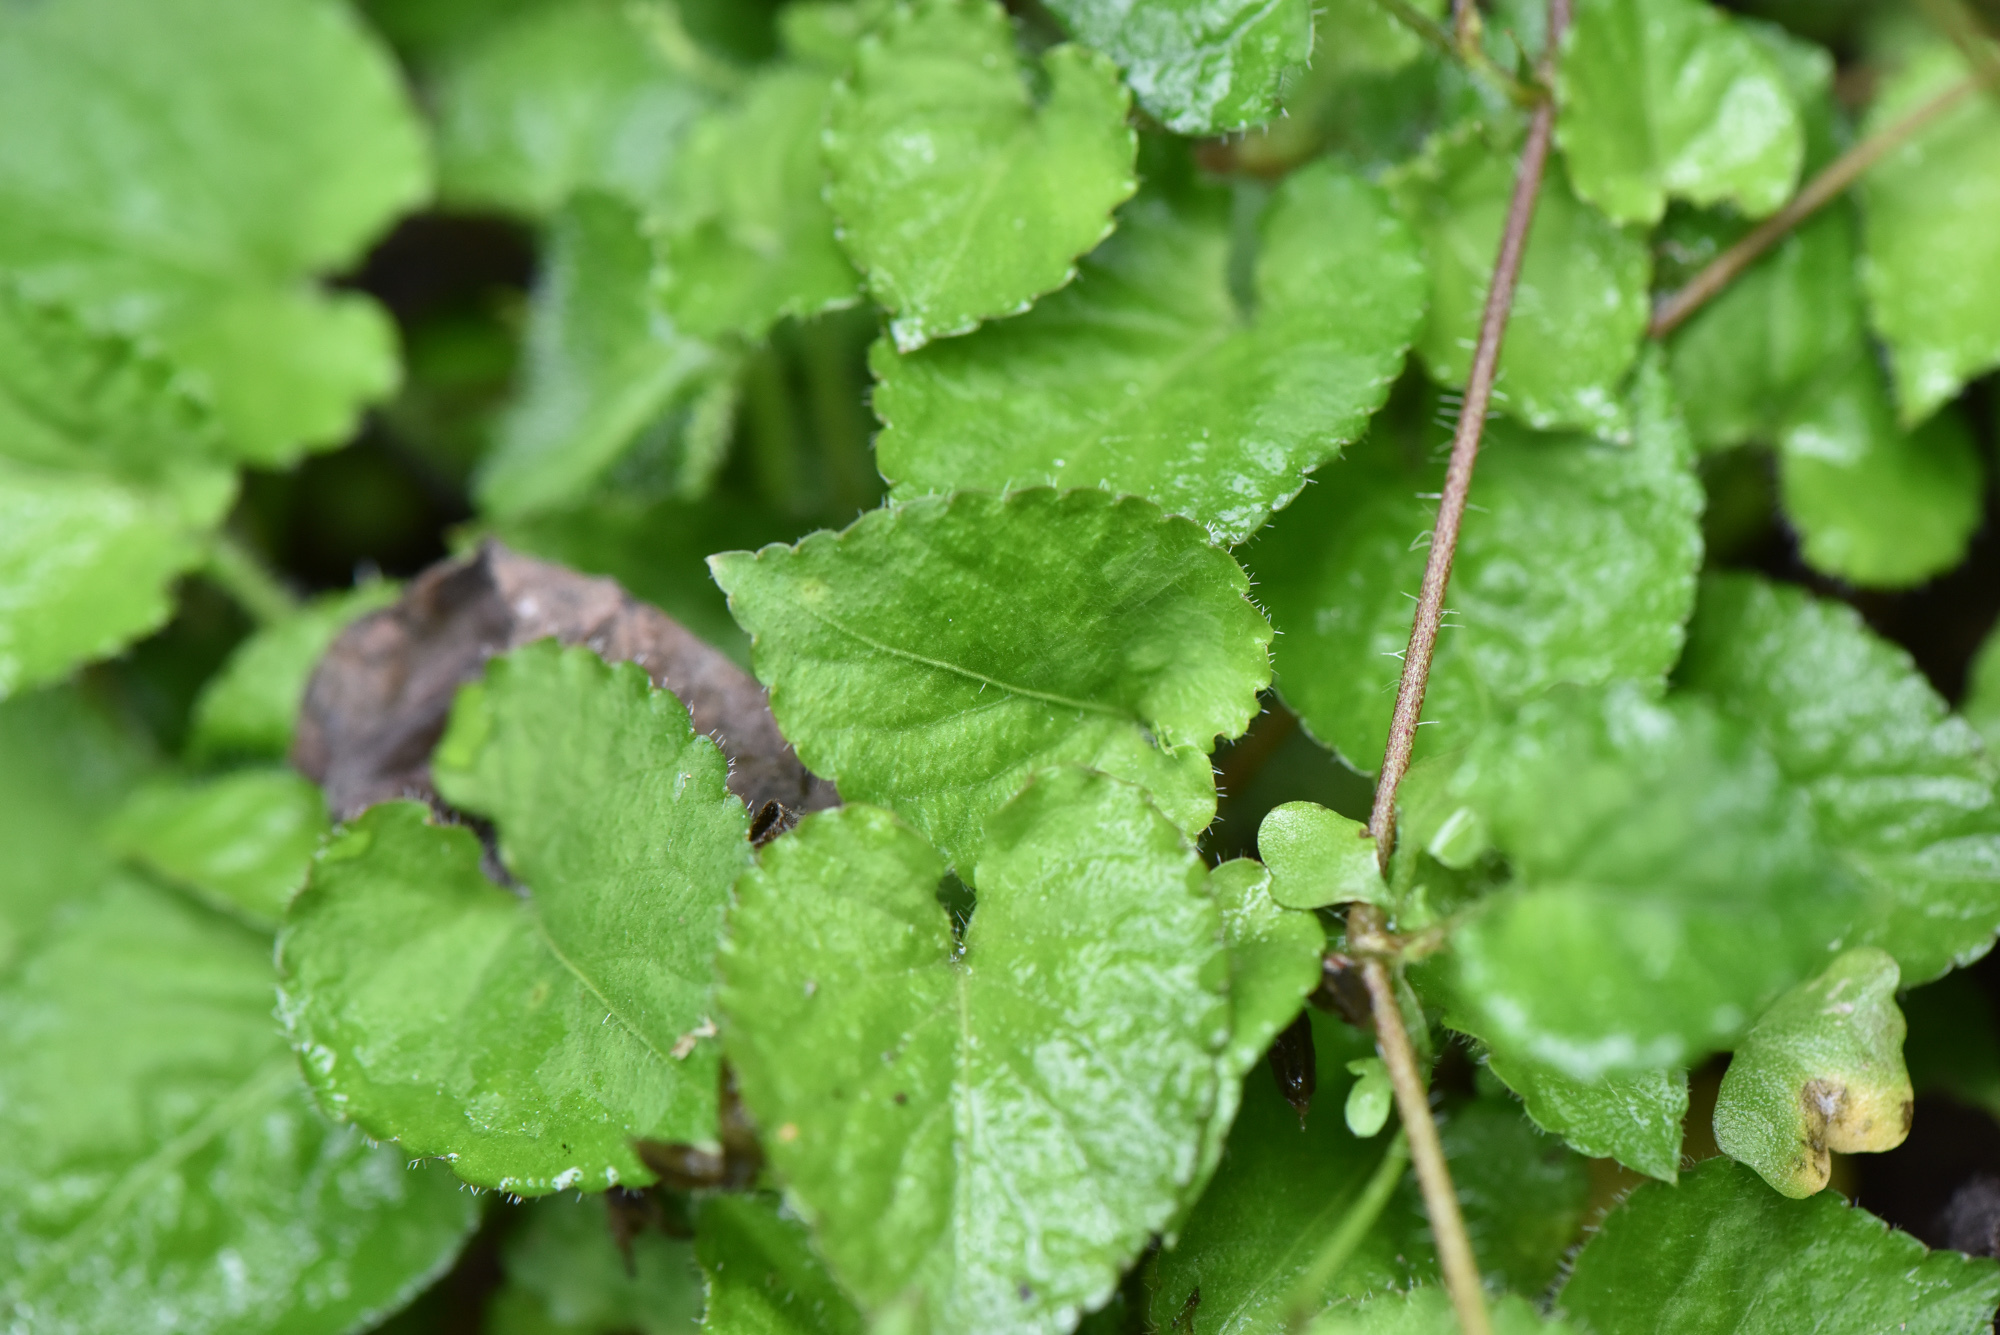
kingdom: Plantae
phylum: Tracheophyta
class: Magnoliopsida
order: Malpighiales
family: Violaceae
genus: Viola
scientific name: Viola adenothrix
